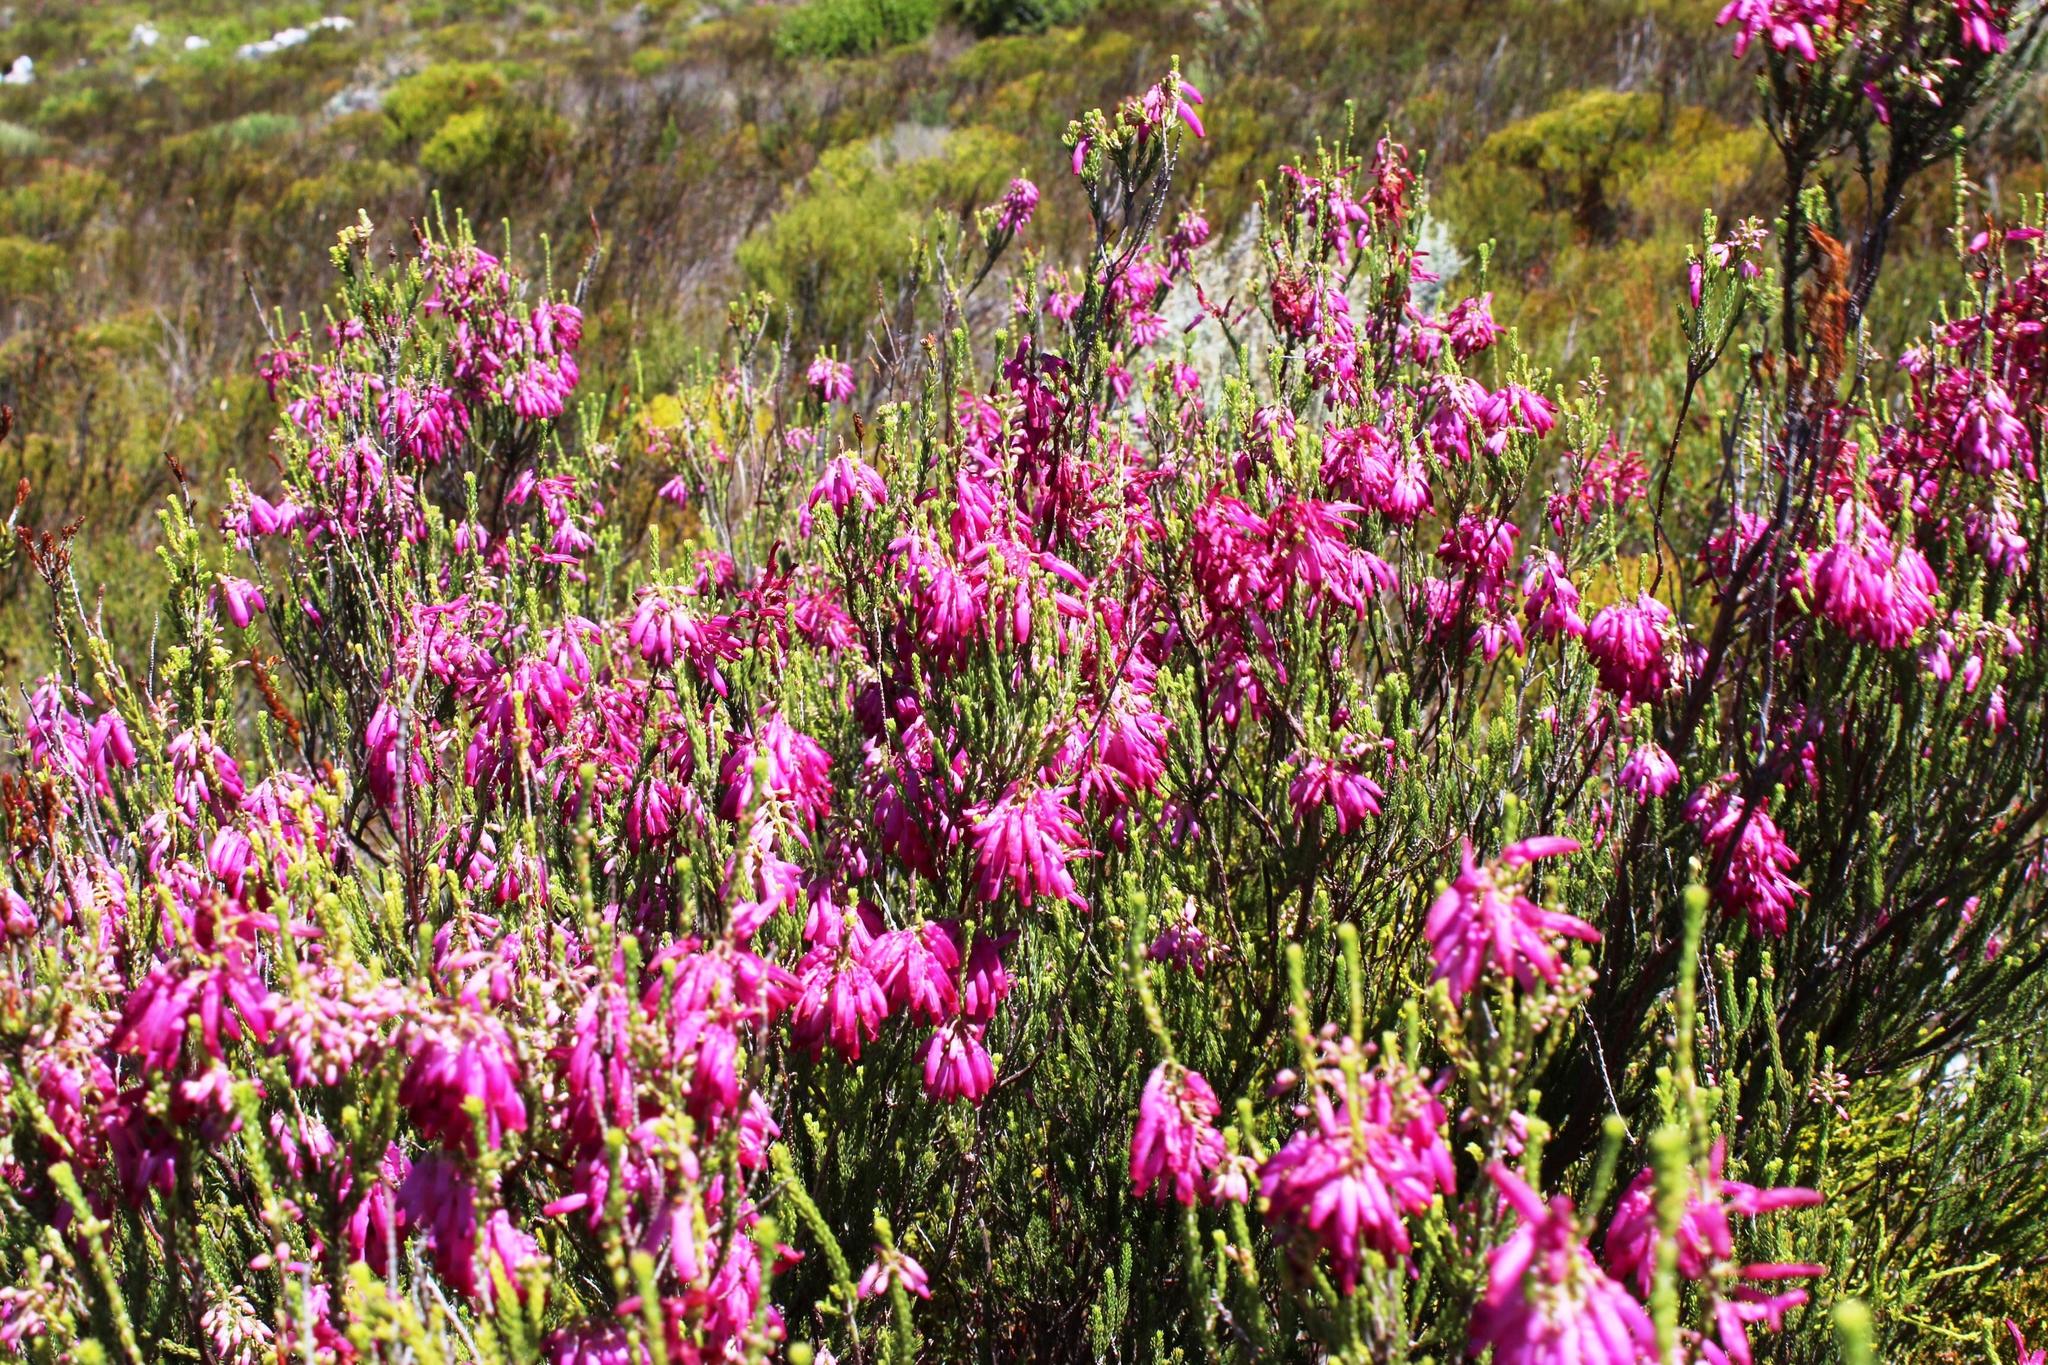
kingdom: Plantae
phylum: Tracheophyta
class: Magnoliopsida
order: Ericales
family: Ericaceae
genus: Erica
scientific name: Erica mammosa
